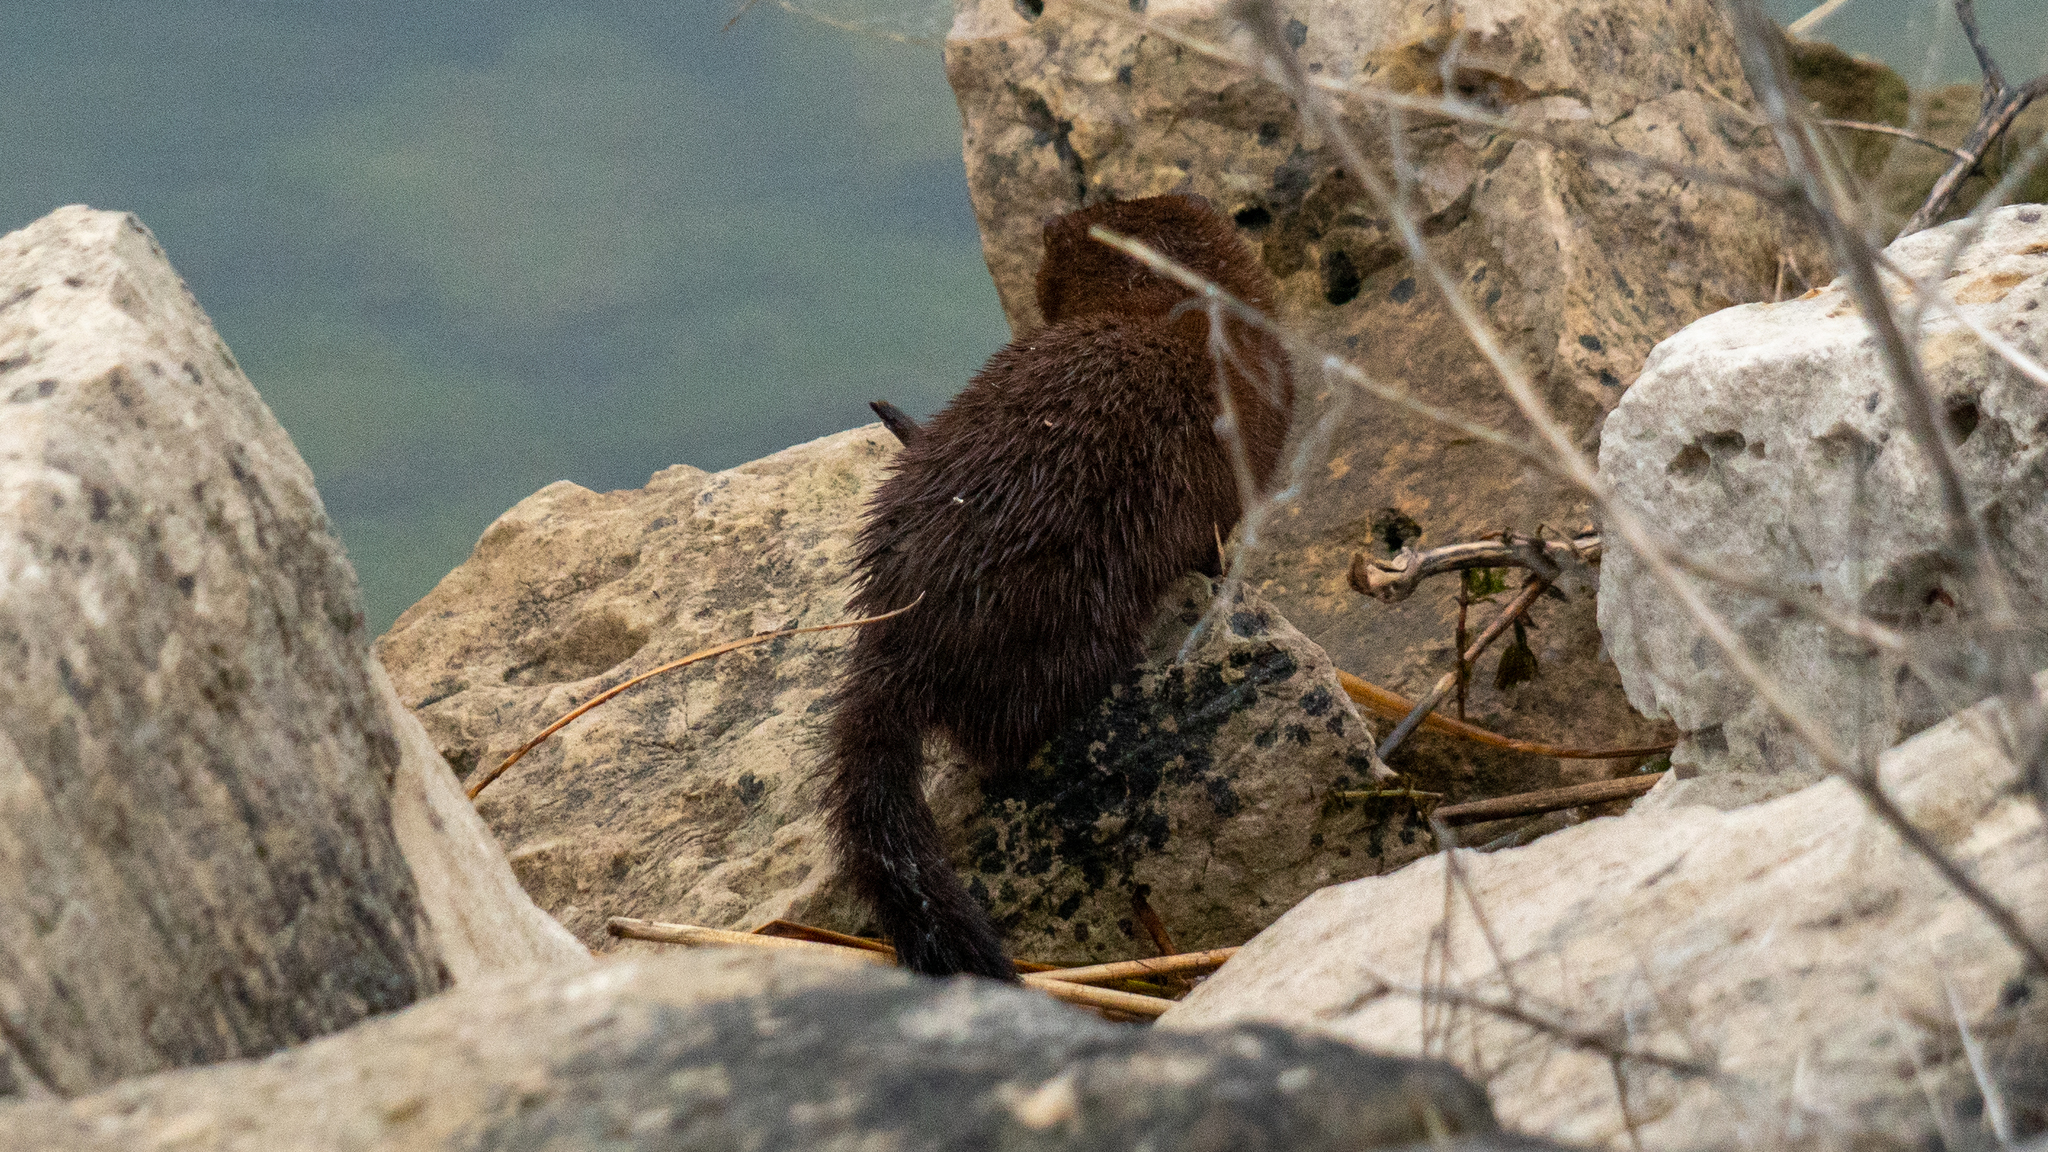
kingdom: Animalia
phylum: Chordata
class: Mammalia
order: Carnivora
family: Mustelidae
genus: Mustela
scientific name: Mustela
